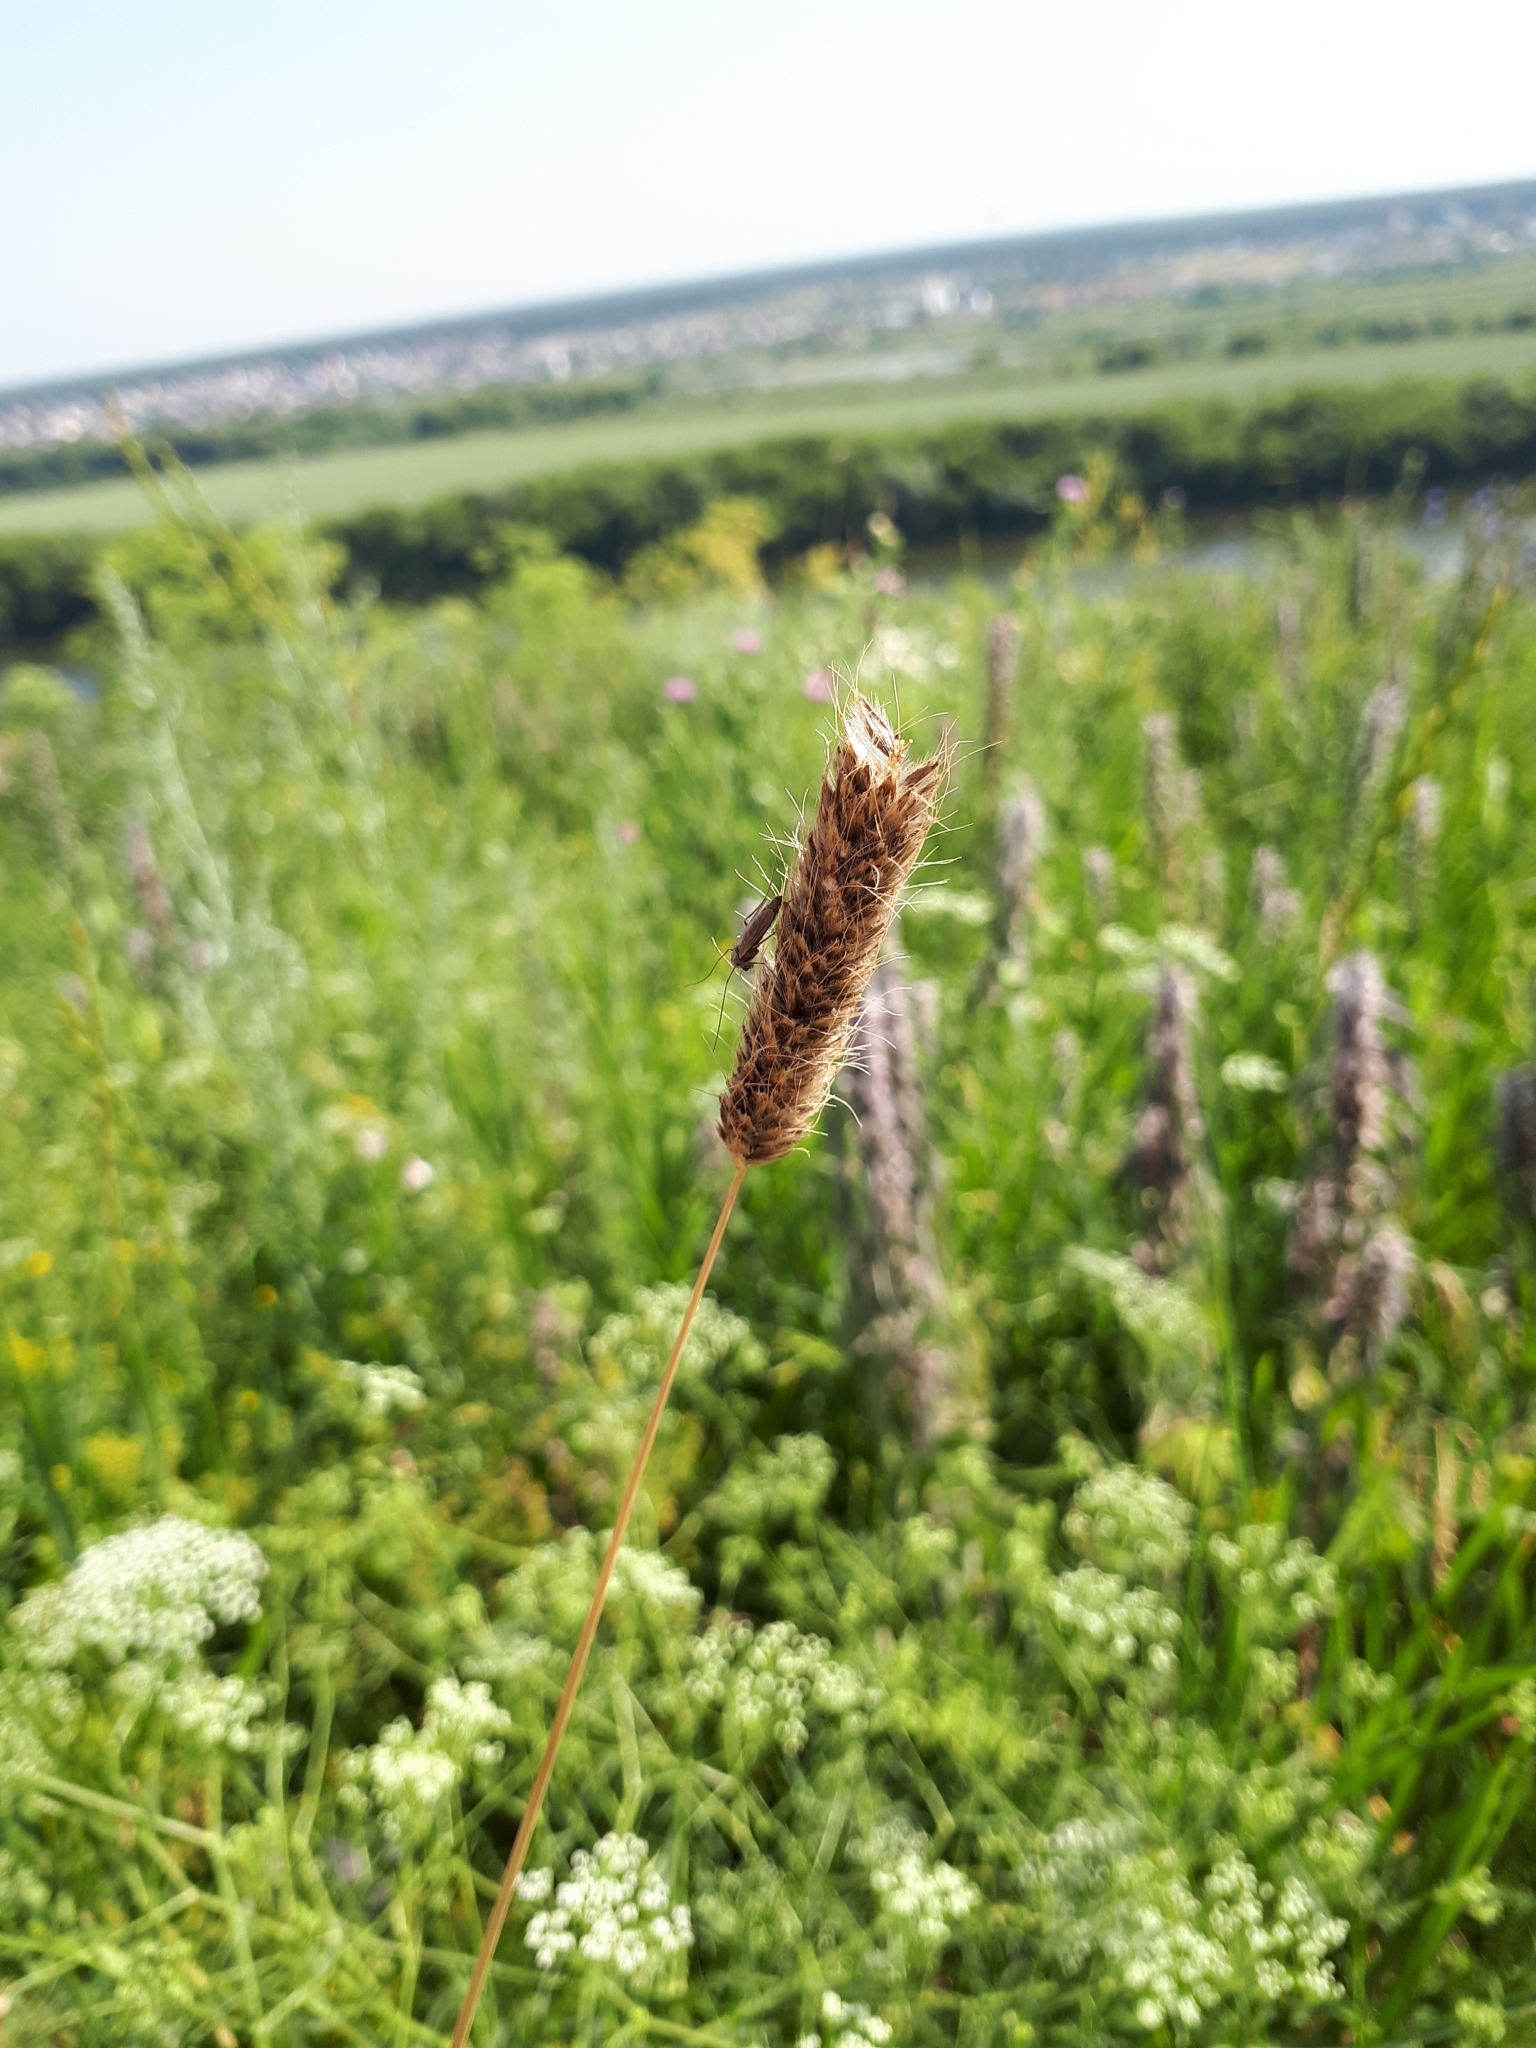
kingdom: Plantae
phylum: Tracheophyta
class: Liliopsida
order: Poales
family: Poaceae
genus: Alopecurus
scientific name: Alopecurus pratensis
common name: Meadow foxtail
